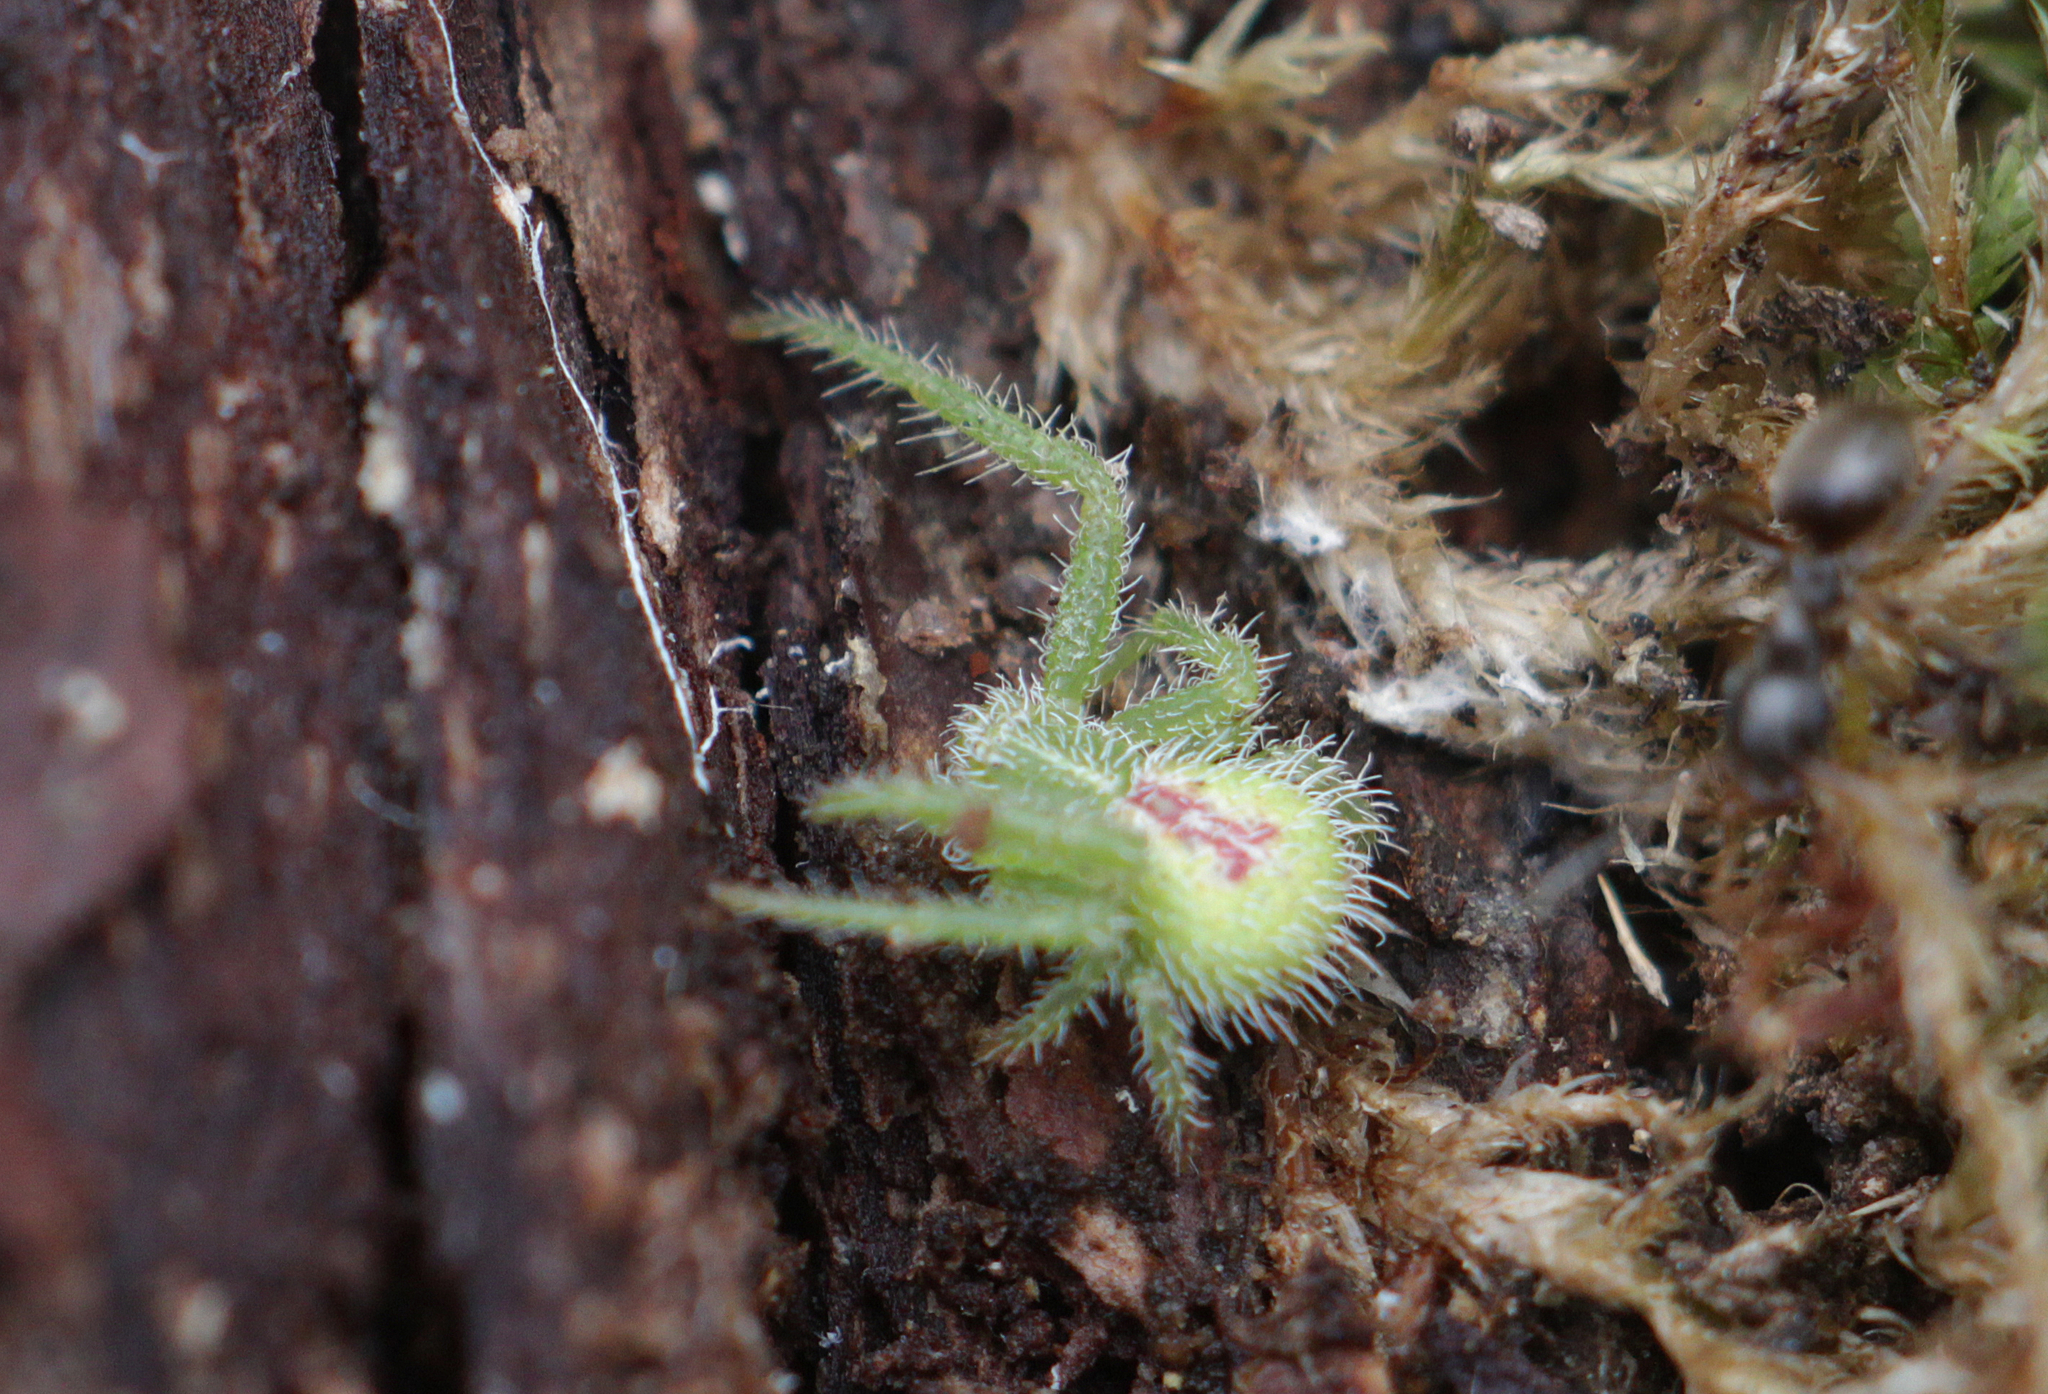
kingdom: Animalia
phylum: Arthropoda
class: Arachnida
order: Araneae
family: Thomisidae
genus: Heriaeus
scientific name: Heriaeus graminicola
